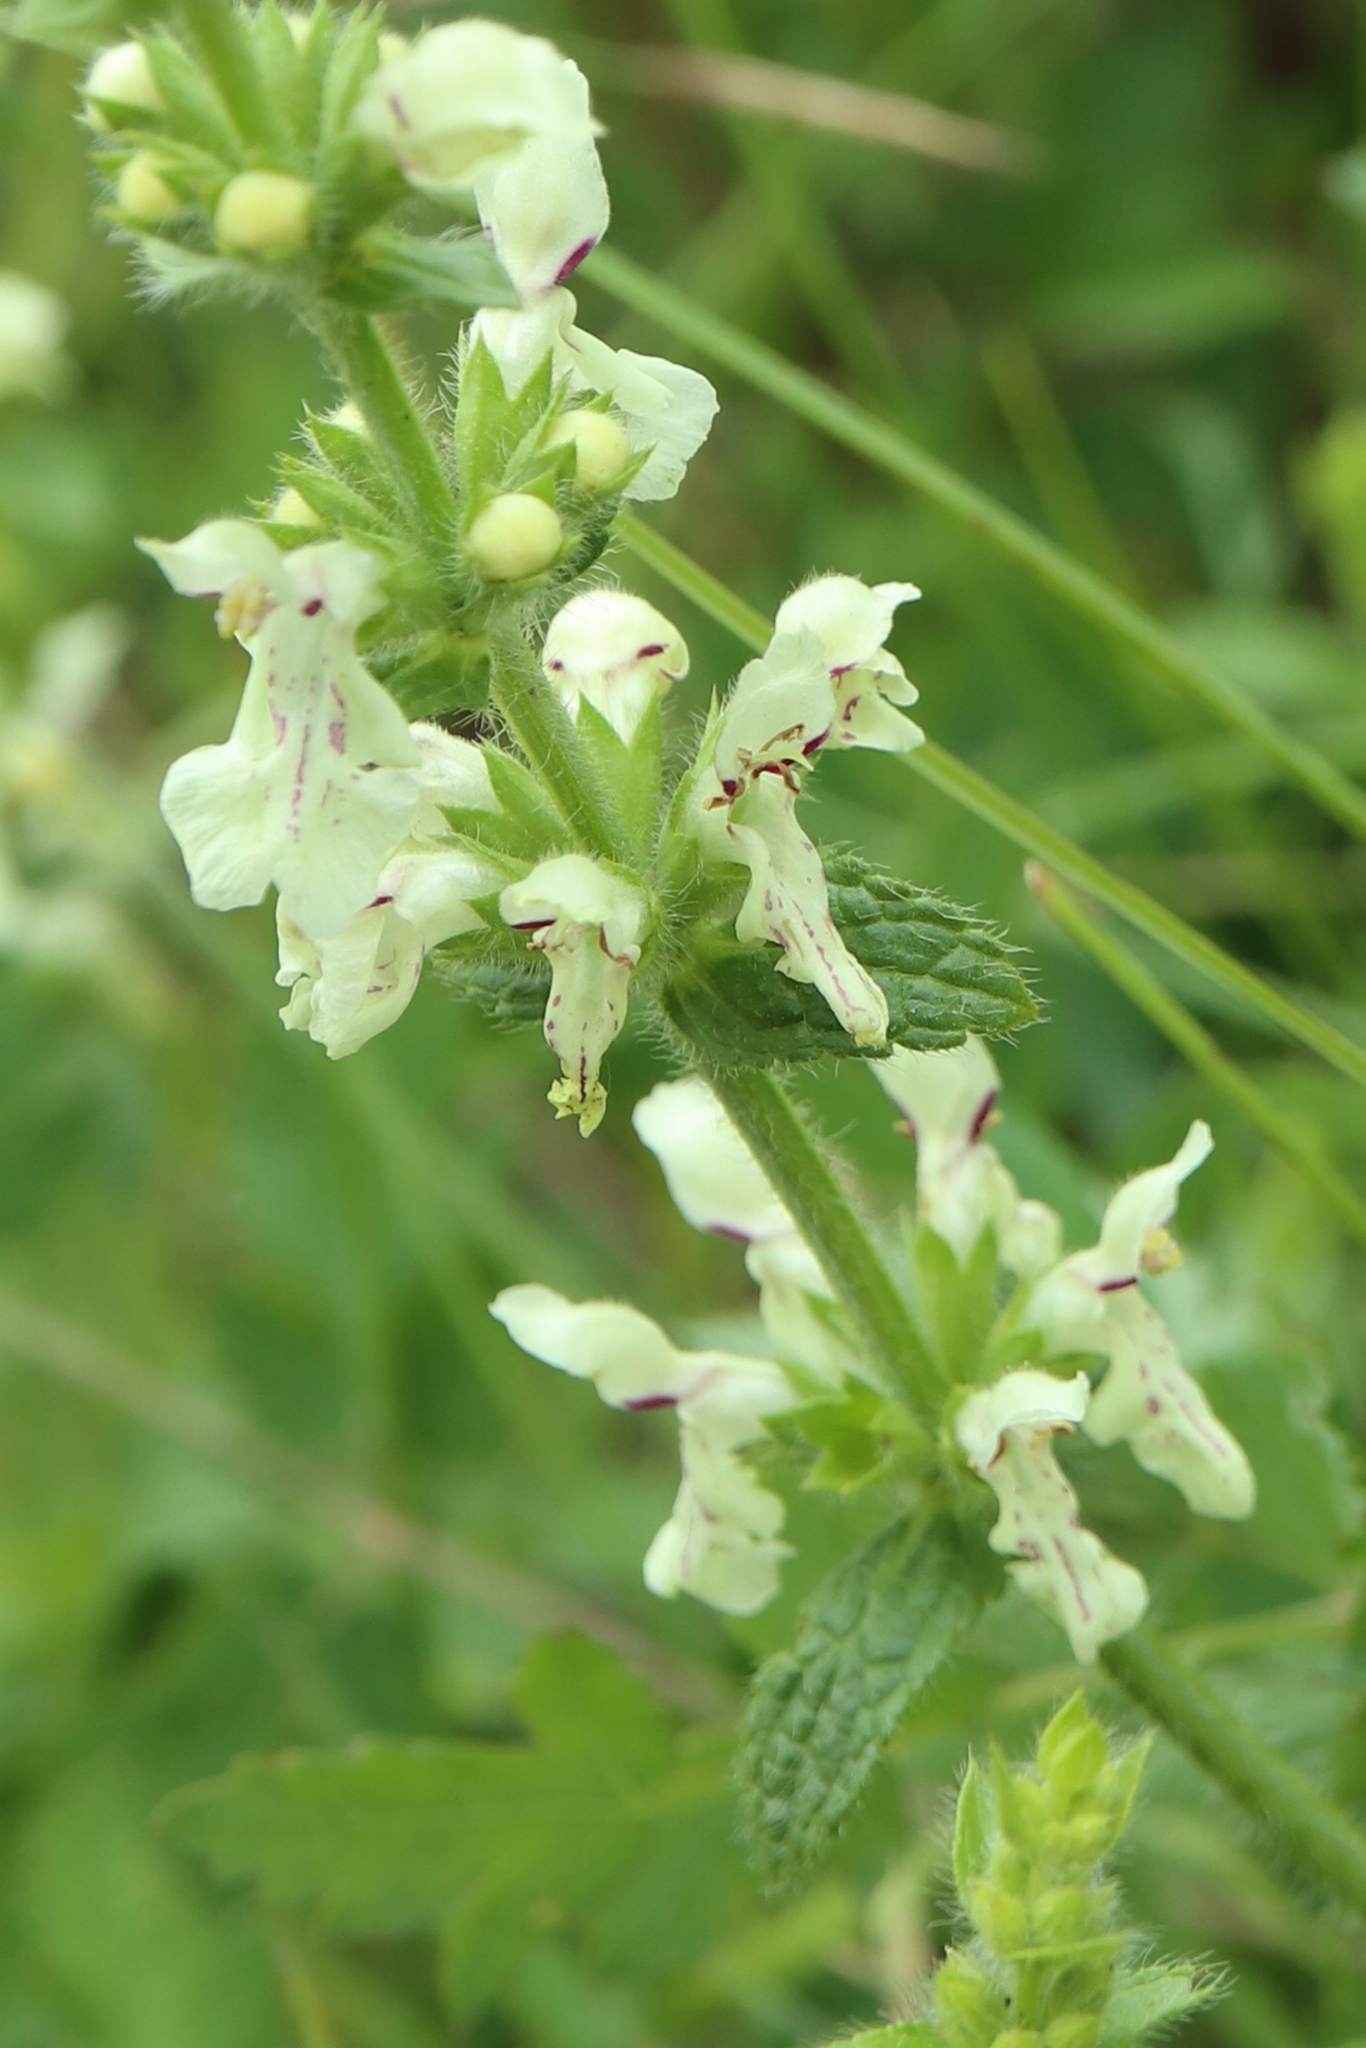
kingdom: Plantae
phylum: Tracheophyta
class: Magnoliopsida
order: Lamiales
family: Lamiaceae
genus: Stachys
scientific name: Stachys recta
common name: Perennial yellow-woundwort
